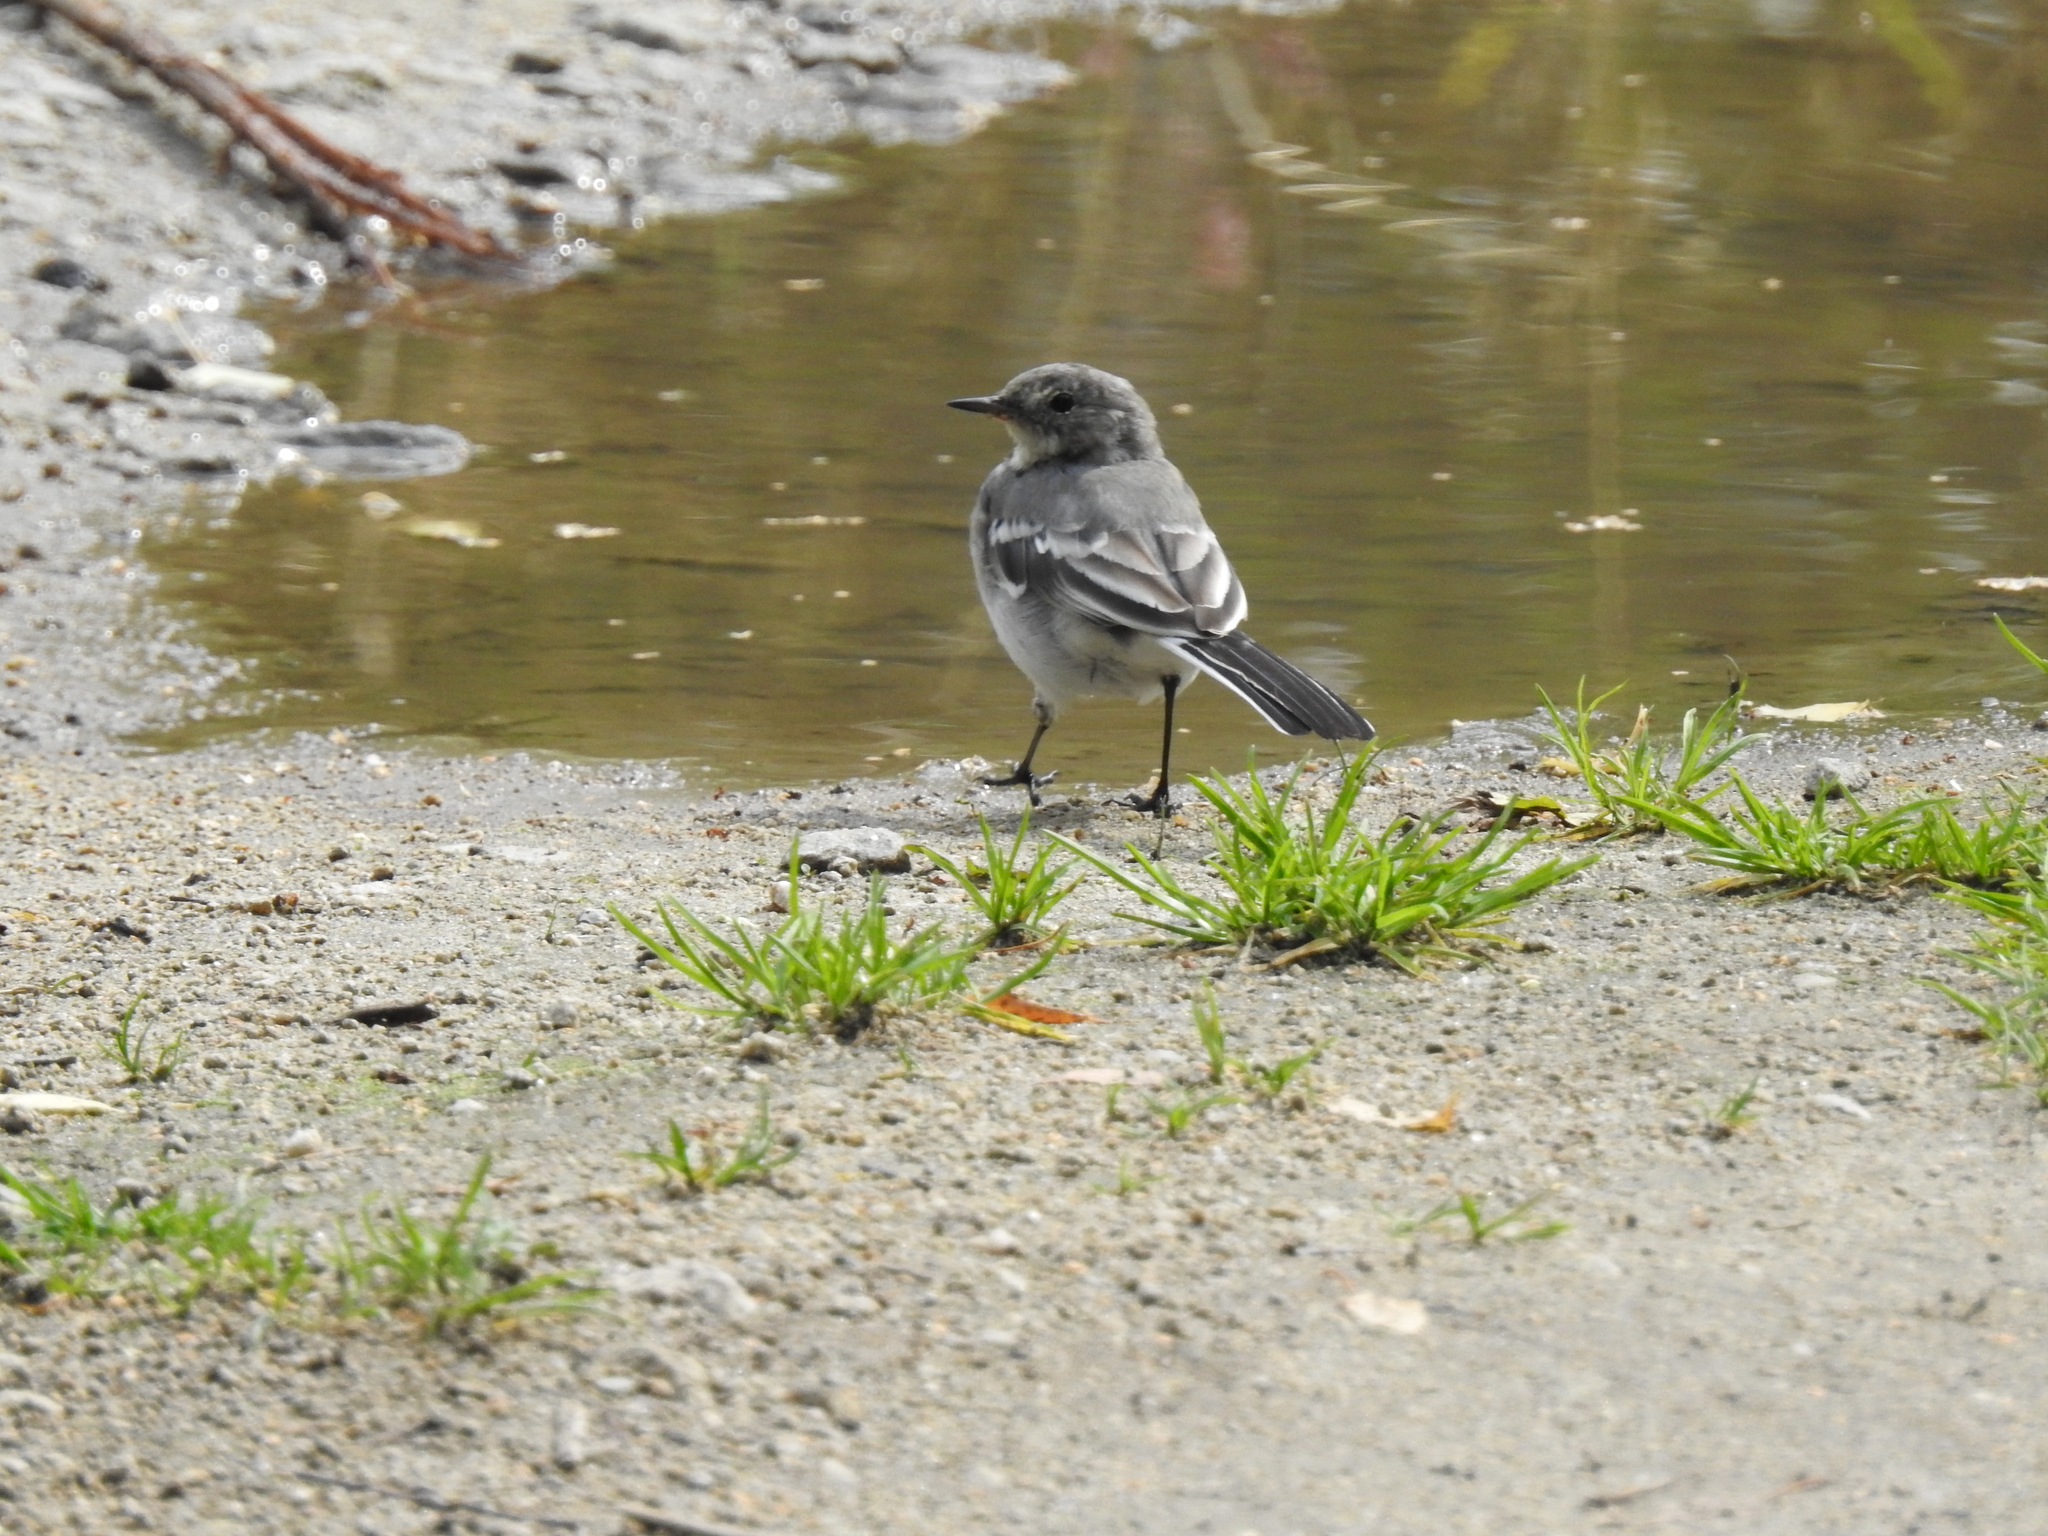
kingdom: Animalia
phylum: Chordata
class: Aves
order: Passeriformes
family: Motacillidae
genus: Motacilla
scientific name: Motacilla alba
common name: White wagtail
